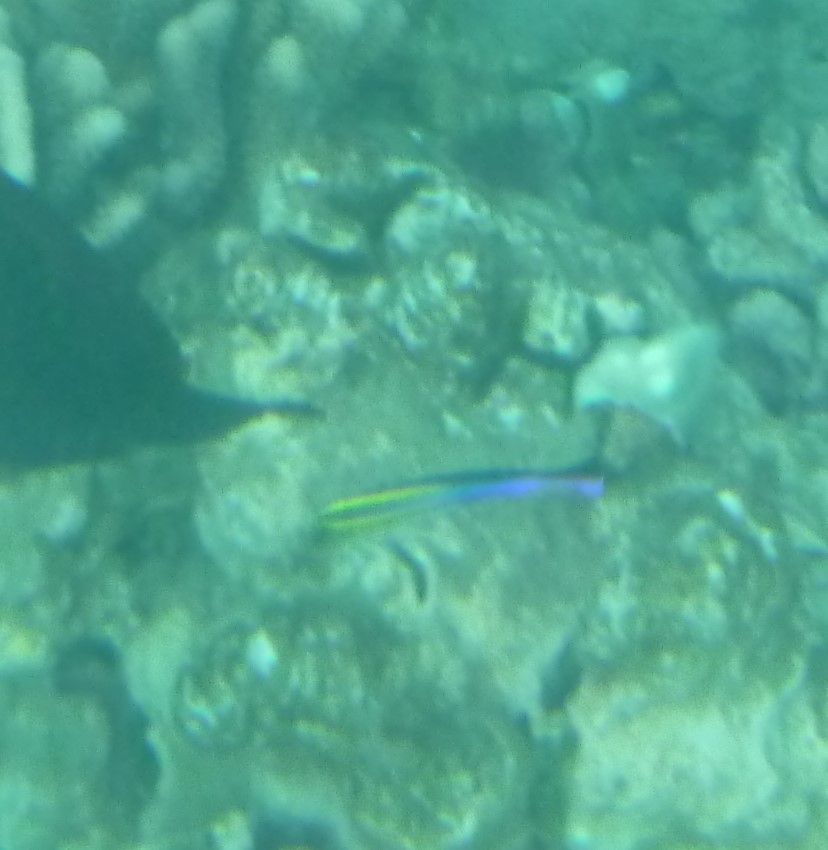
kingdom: Animalia
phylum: Chordata
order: Perciformes
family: Labridae
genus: Labroides
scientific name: Labroides phthirophagus
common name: Cleaner wrasse
